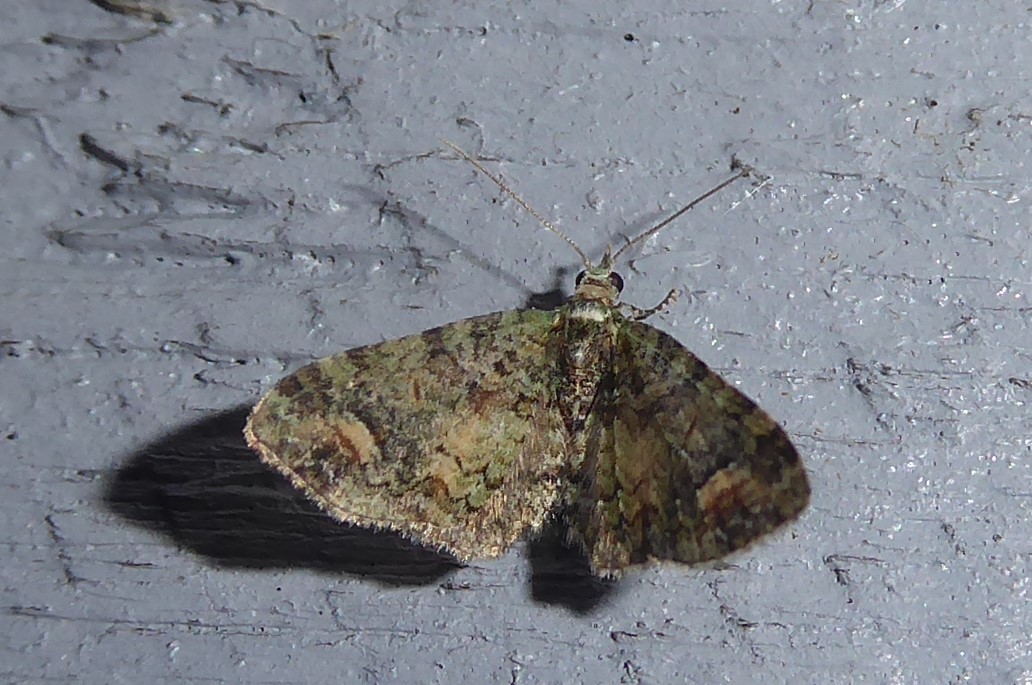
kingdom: Animalia
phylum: Arthropoda
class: Insecta
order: Lepidoptera
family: Geometridae
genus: Idaea
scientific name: Idaea mutanda
